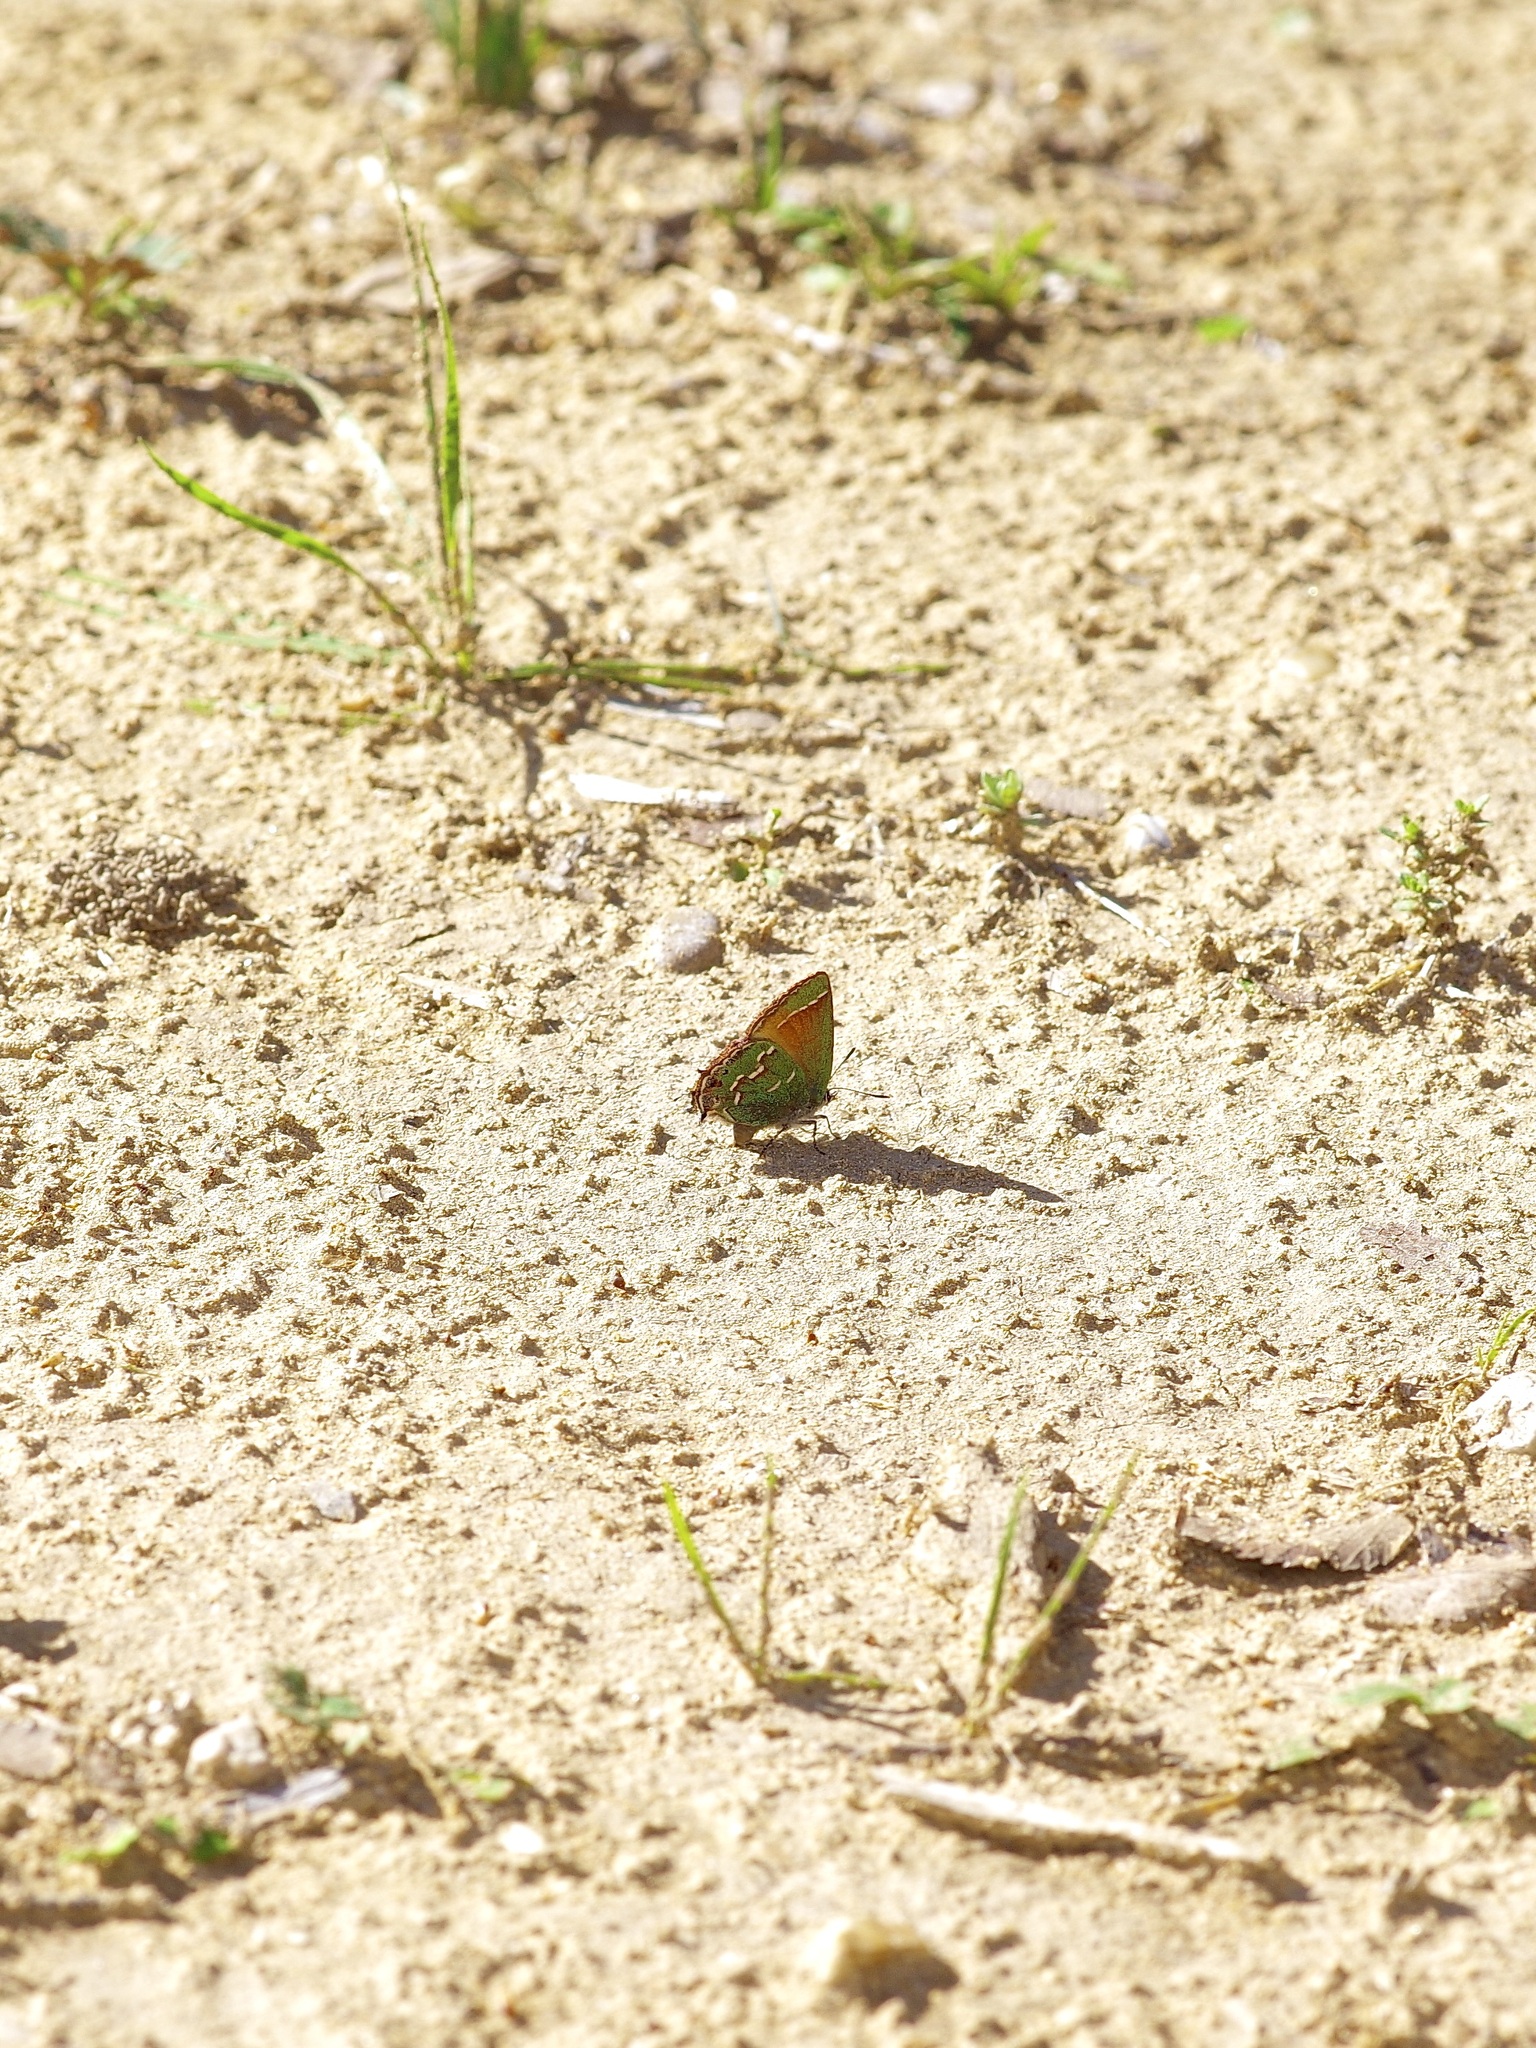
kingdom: Animalia
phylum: Arthropoda
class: Insecta
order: Lepidoptera
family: Lycaenidae
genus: Mitoura
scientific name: Mitoura gryneus
